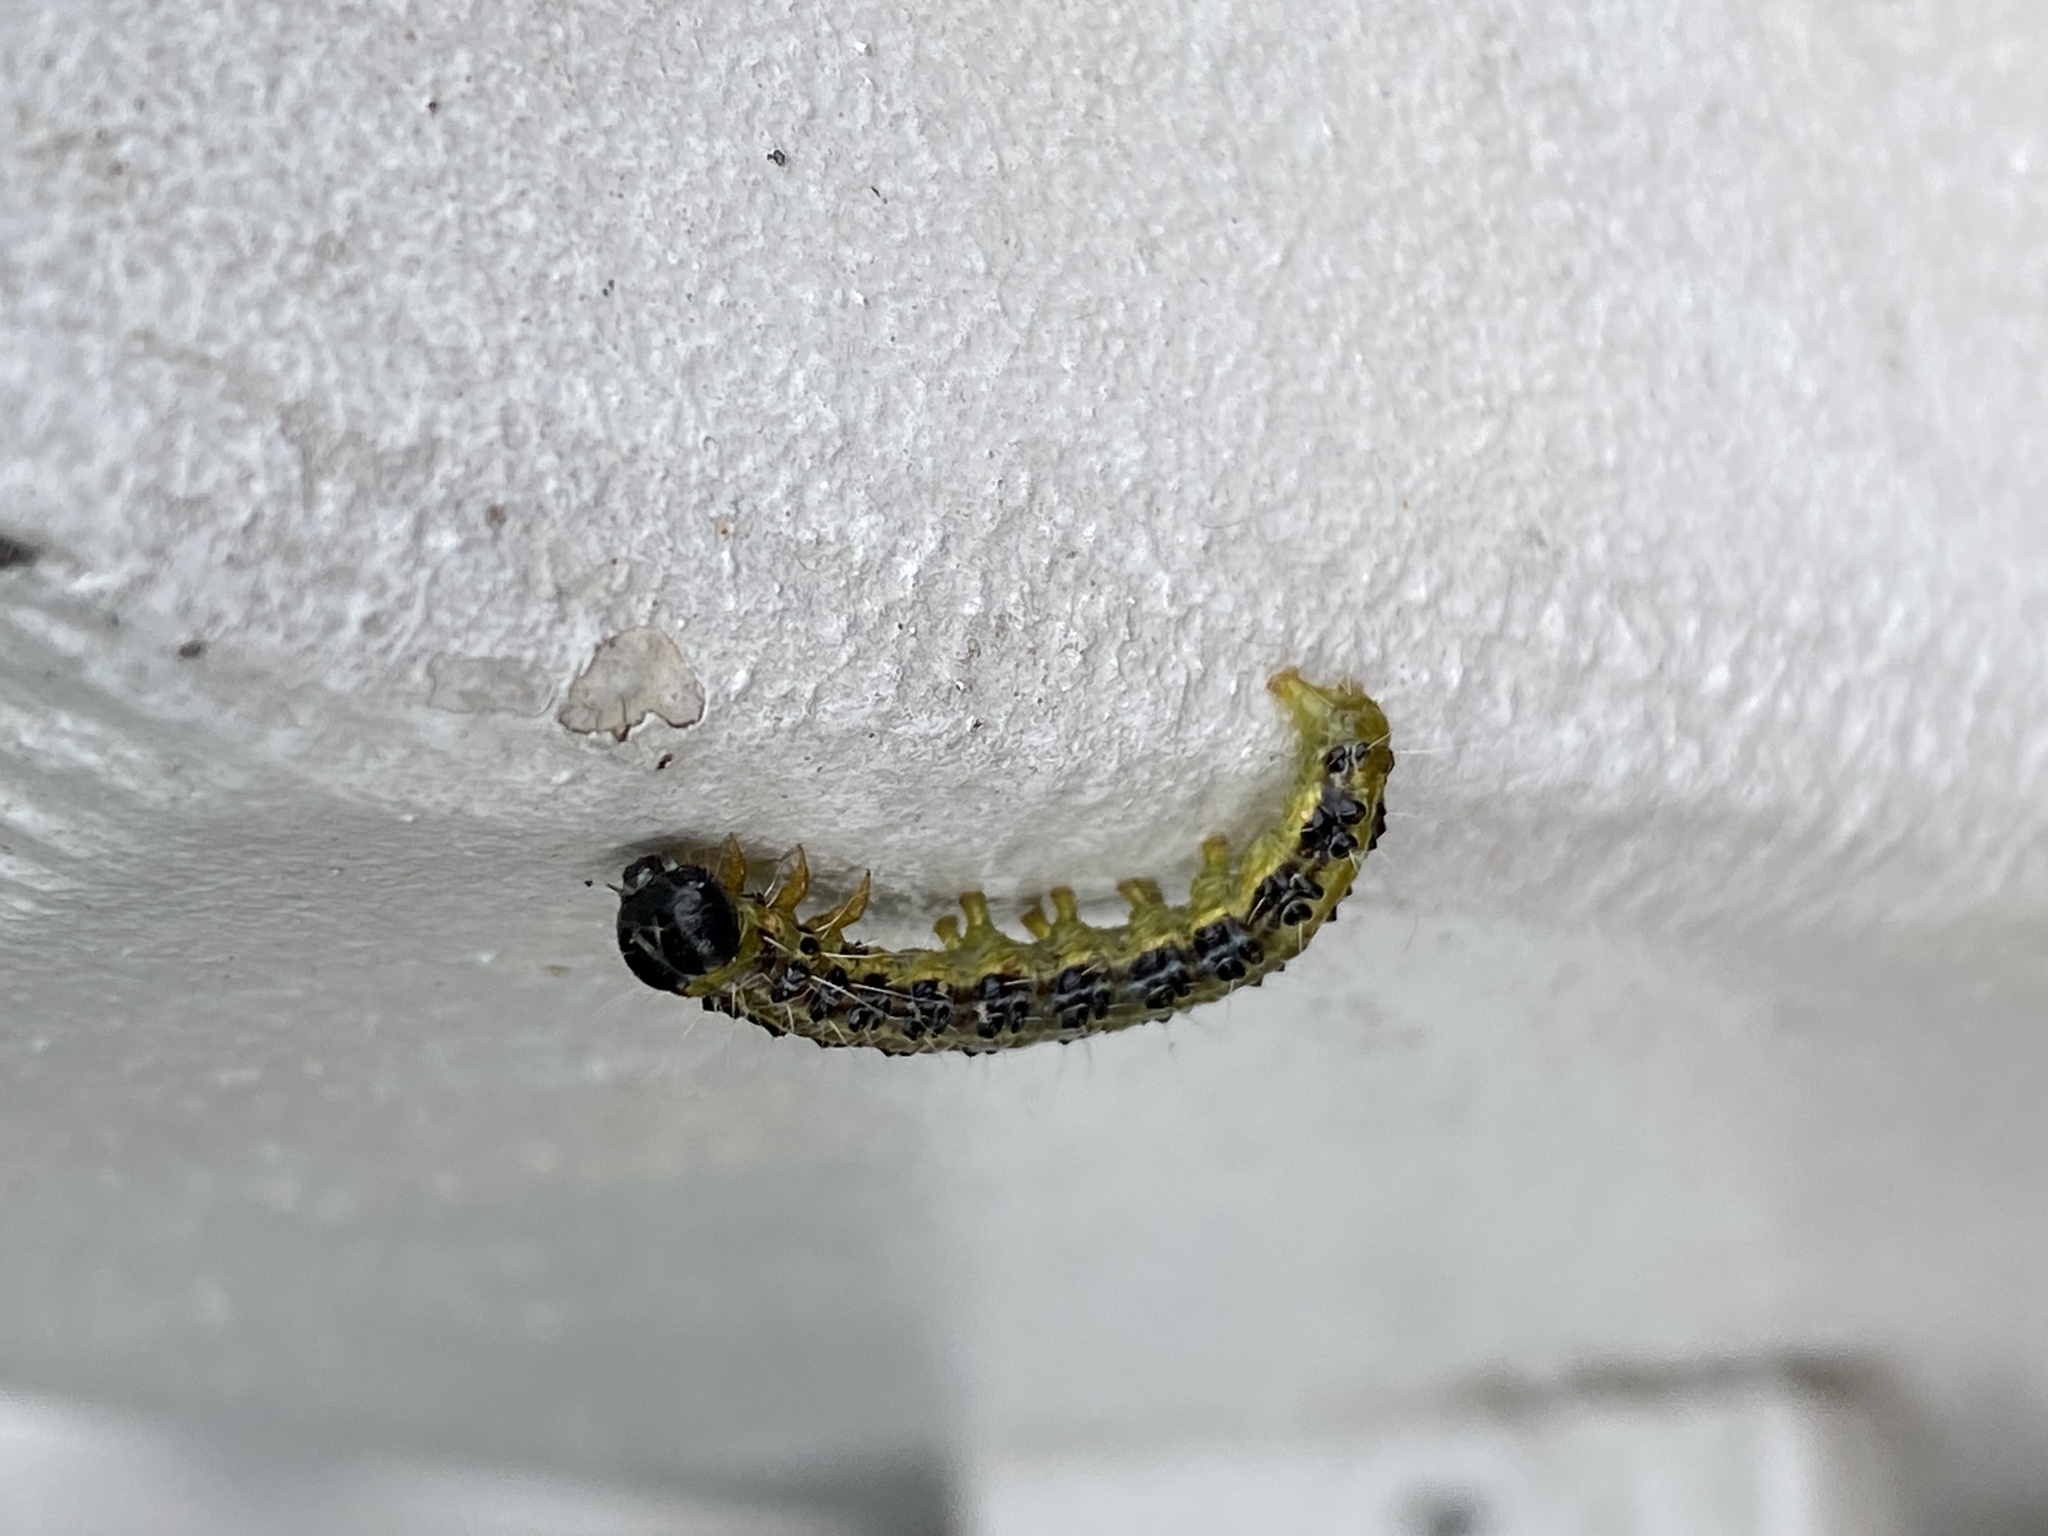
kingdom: Animalia
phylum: Arthropoda
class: Insecta
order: Lepidoptera
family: Crambidae
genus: Cydalima
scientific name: Cydalima perspectalis
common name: Box tree moth
